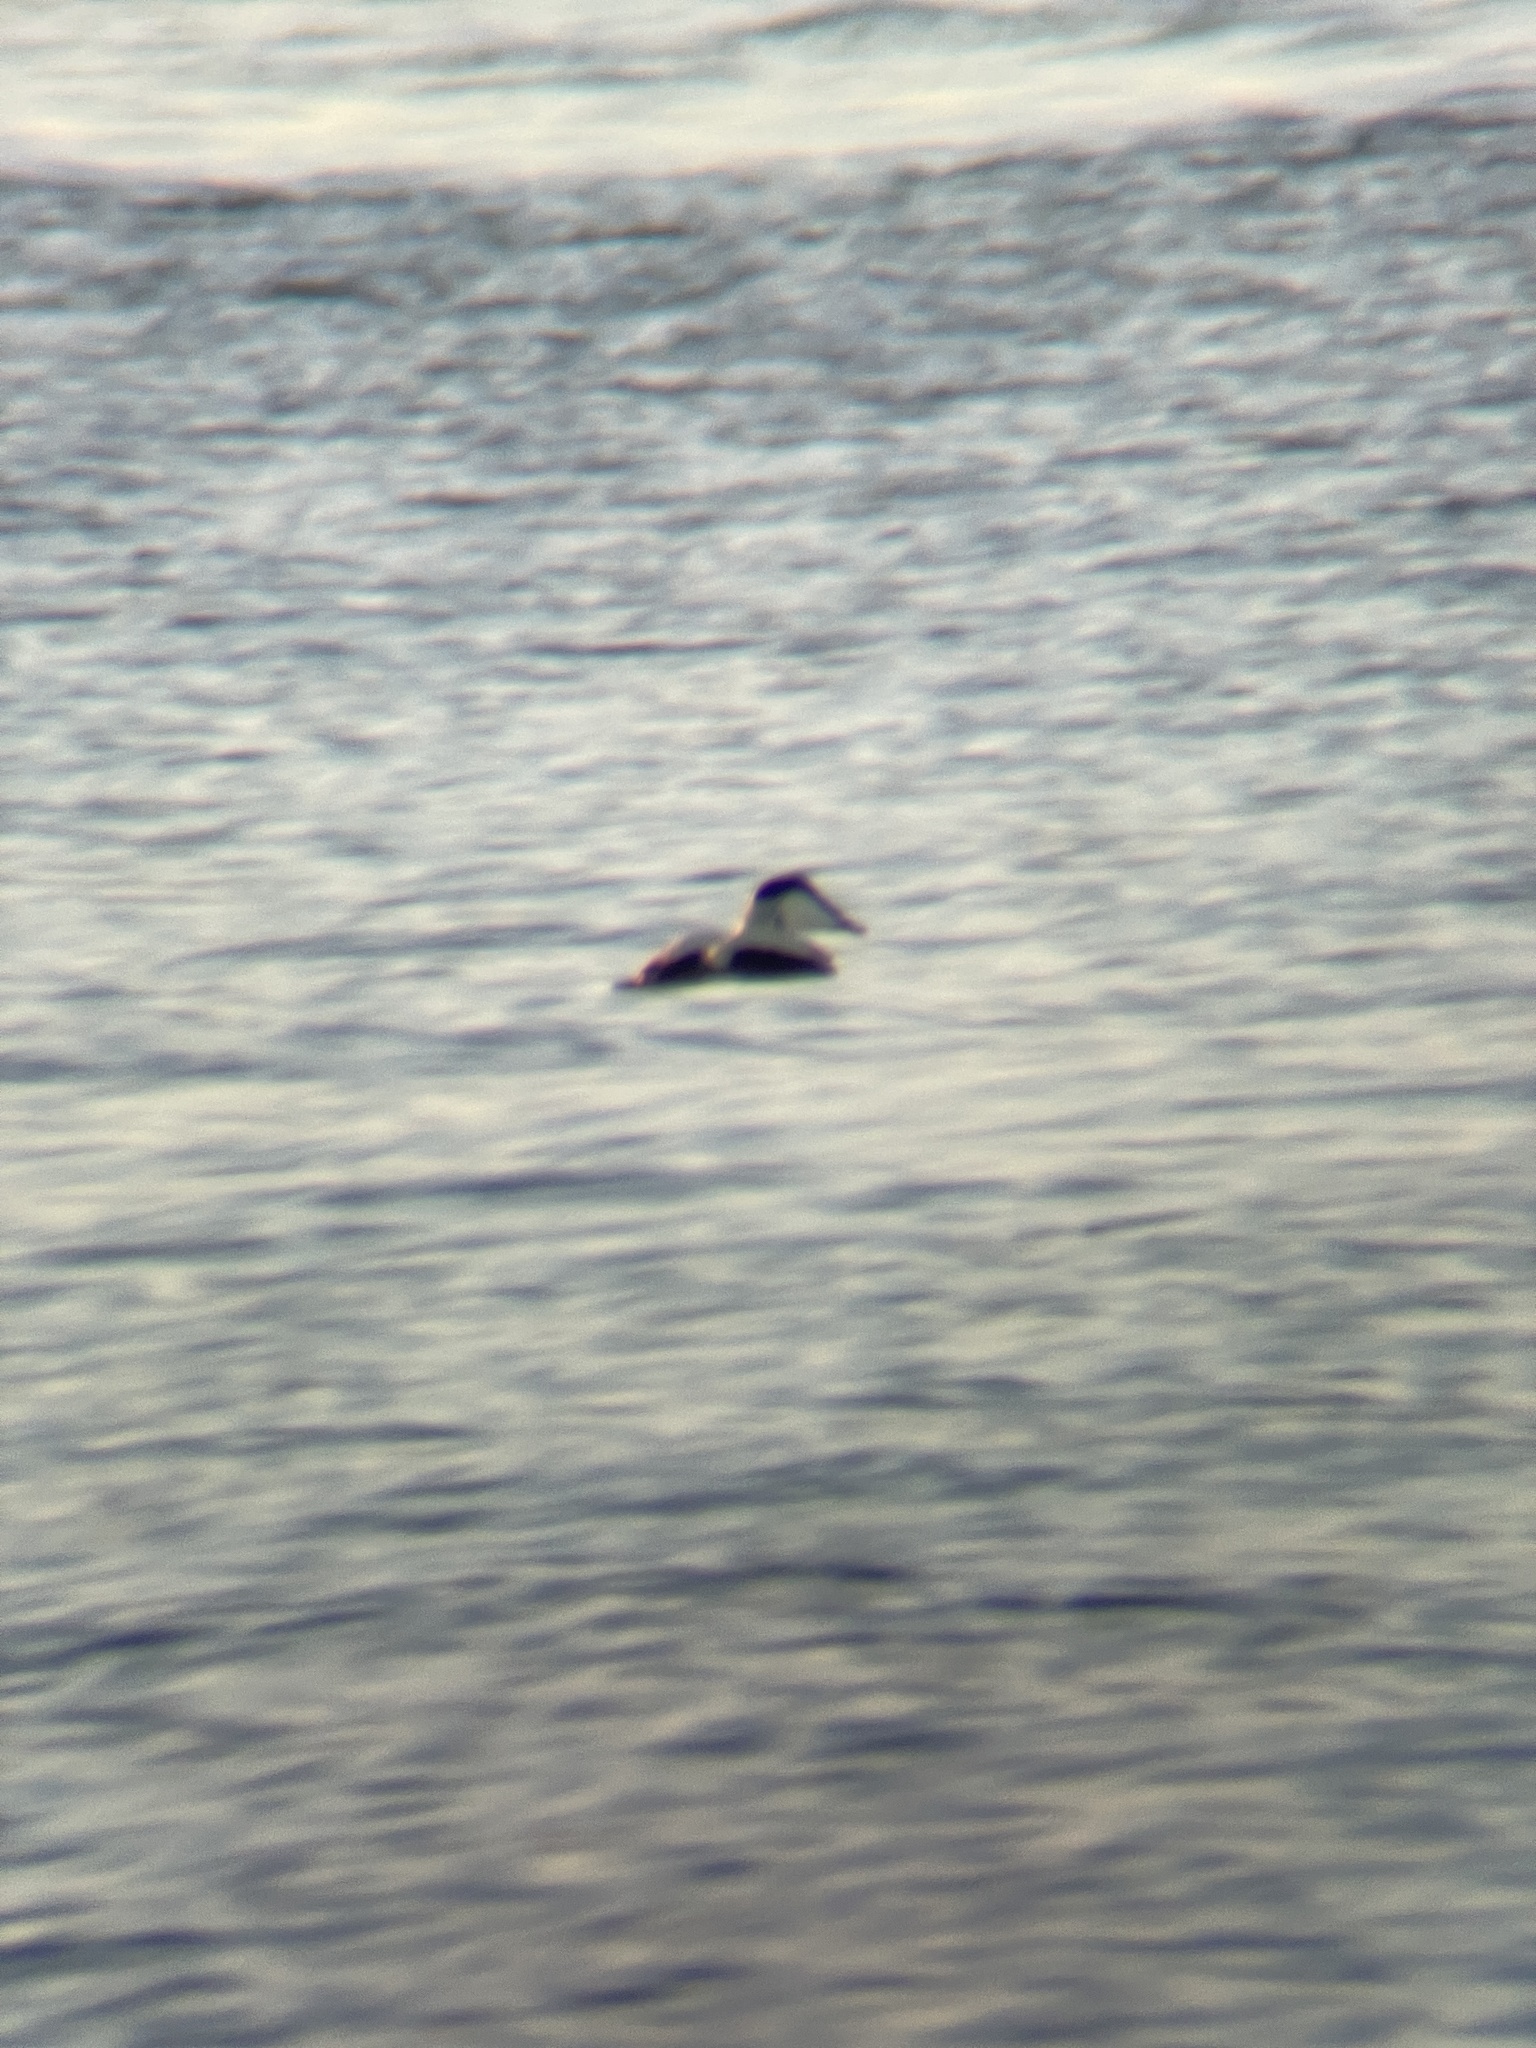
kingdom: Animalia
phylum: Chordata
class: Aves
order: Anseriformes
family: Anatidae
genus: Somateria
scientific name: Somateria mollissima
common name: Common eider
